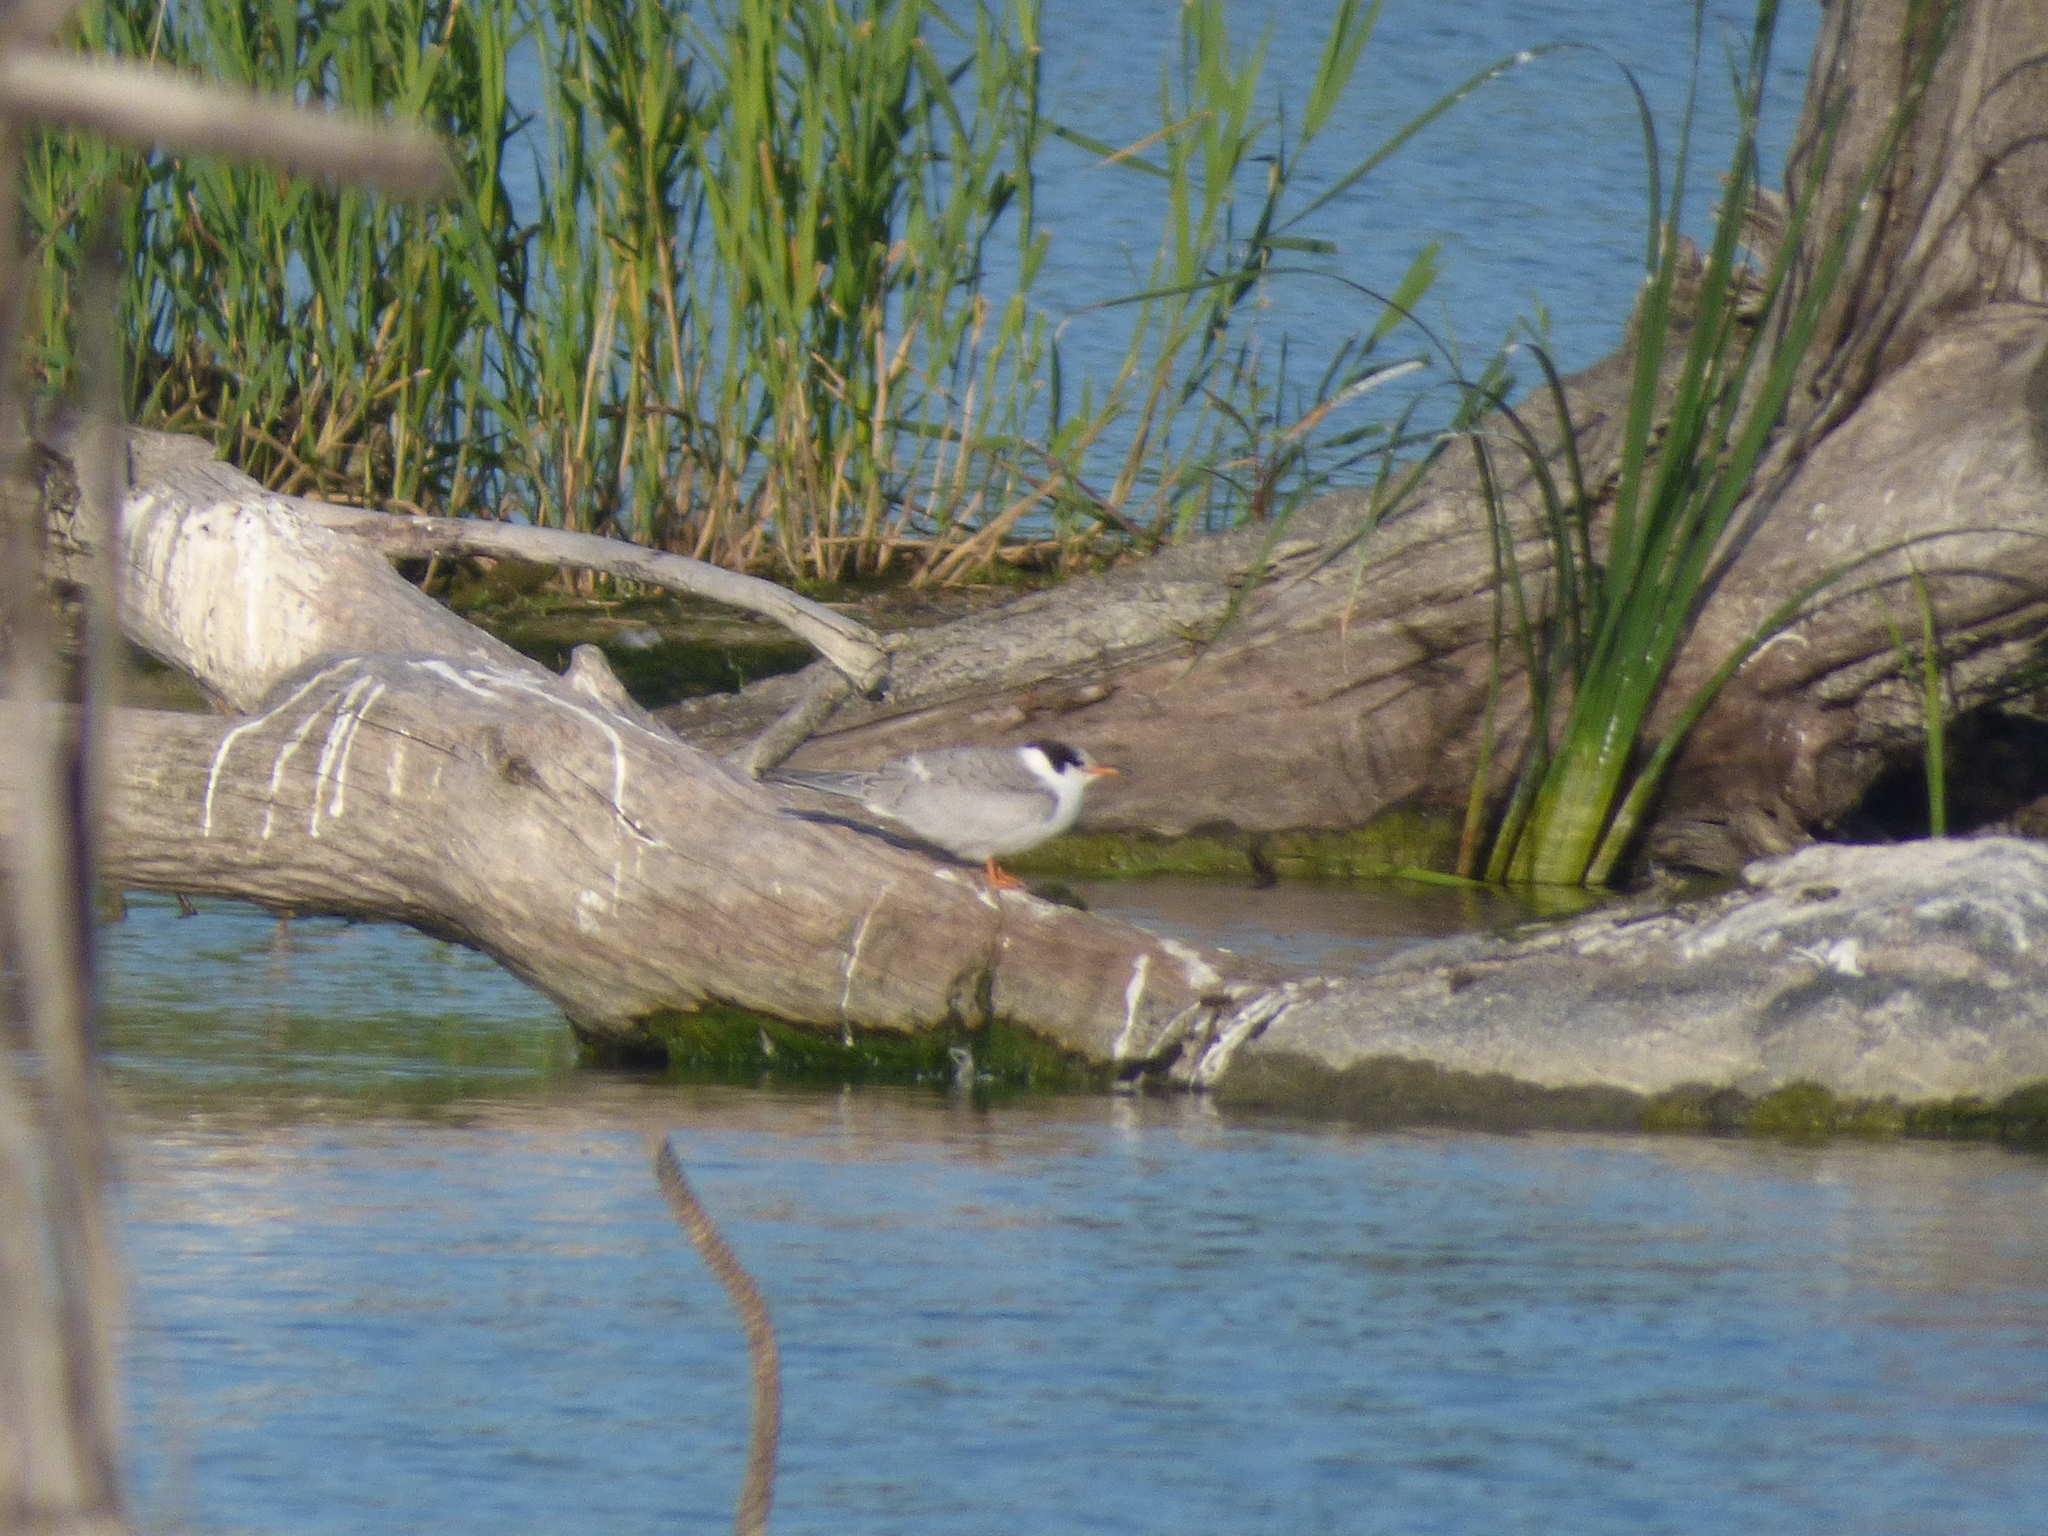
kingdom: Animalia
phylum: Chordata
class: Aves
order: Charadriiformes
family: Laridae
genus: Sterna
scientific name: Sterna hirundo
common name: Common tern
